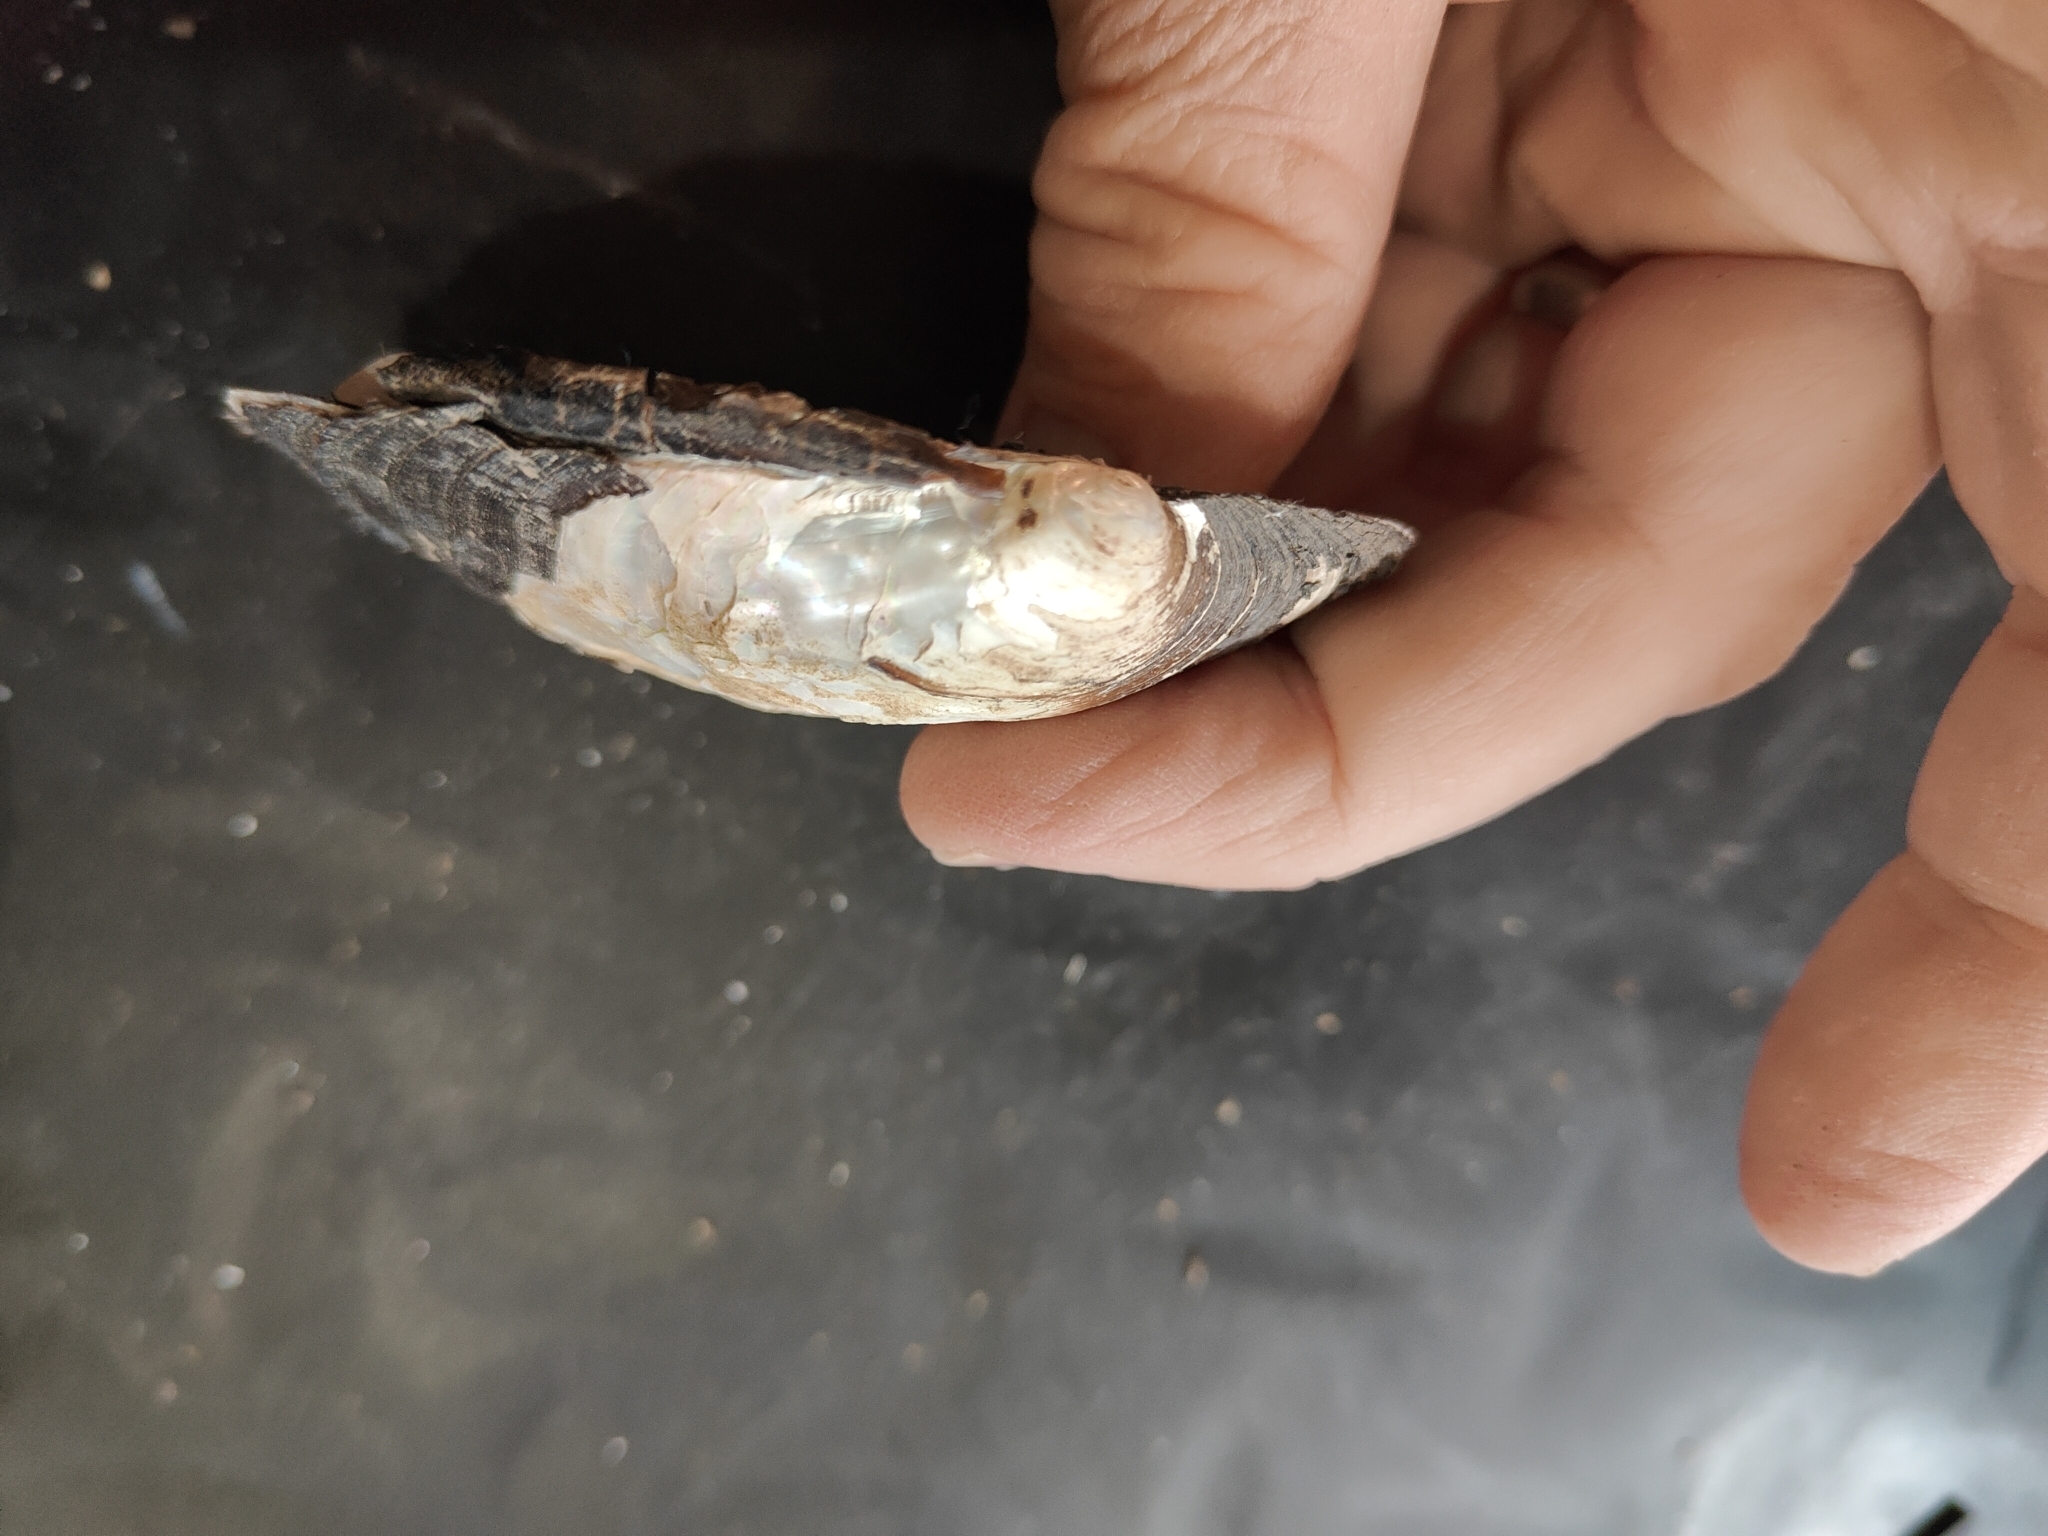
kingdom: Animalia
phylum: Mollusca
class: Bivalvia
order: Unionida
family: Unionidae
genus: Amblema
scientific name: Amblema plicata
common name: Threeridge
